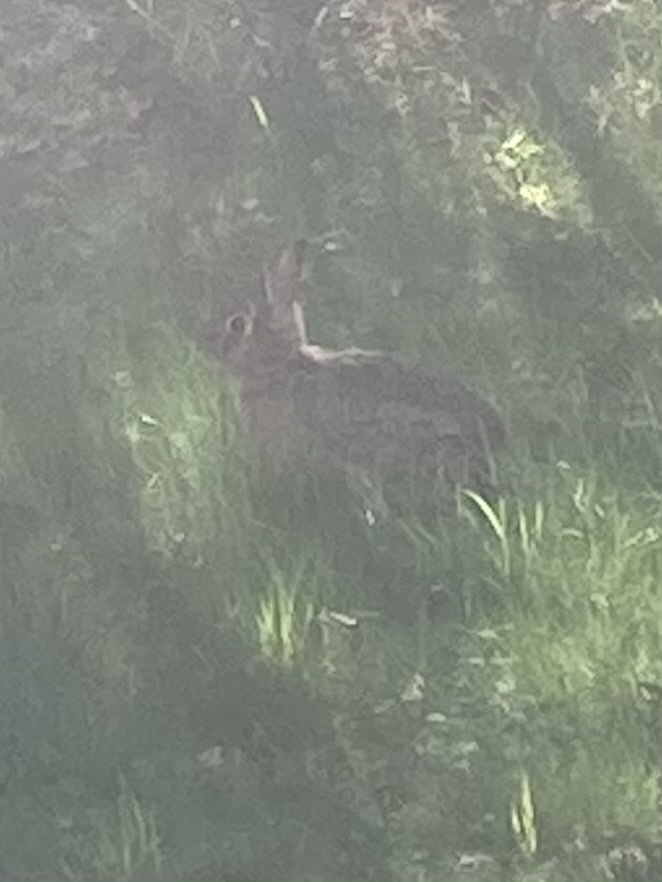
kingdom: Animalia
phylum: Chordata
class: Mammalia
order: Lagomorpha
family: Leporidae
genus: Sylvilagus
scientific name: Sylvilagus floridanus
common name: Eastern cottontail
